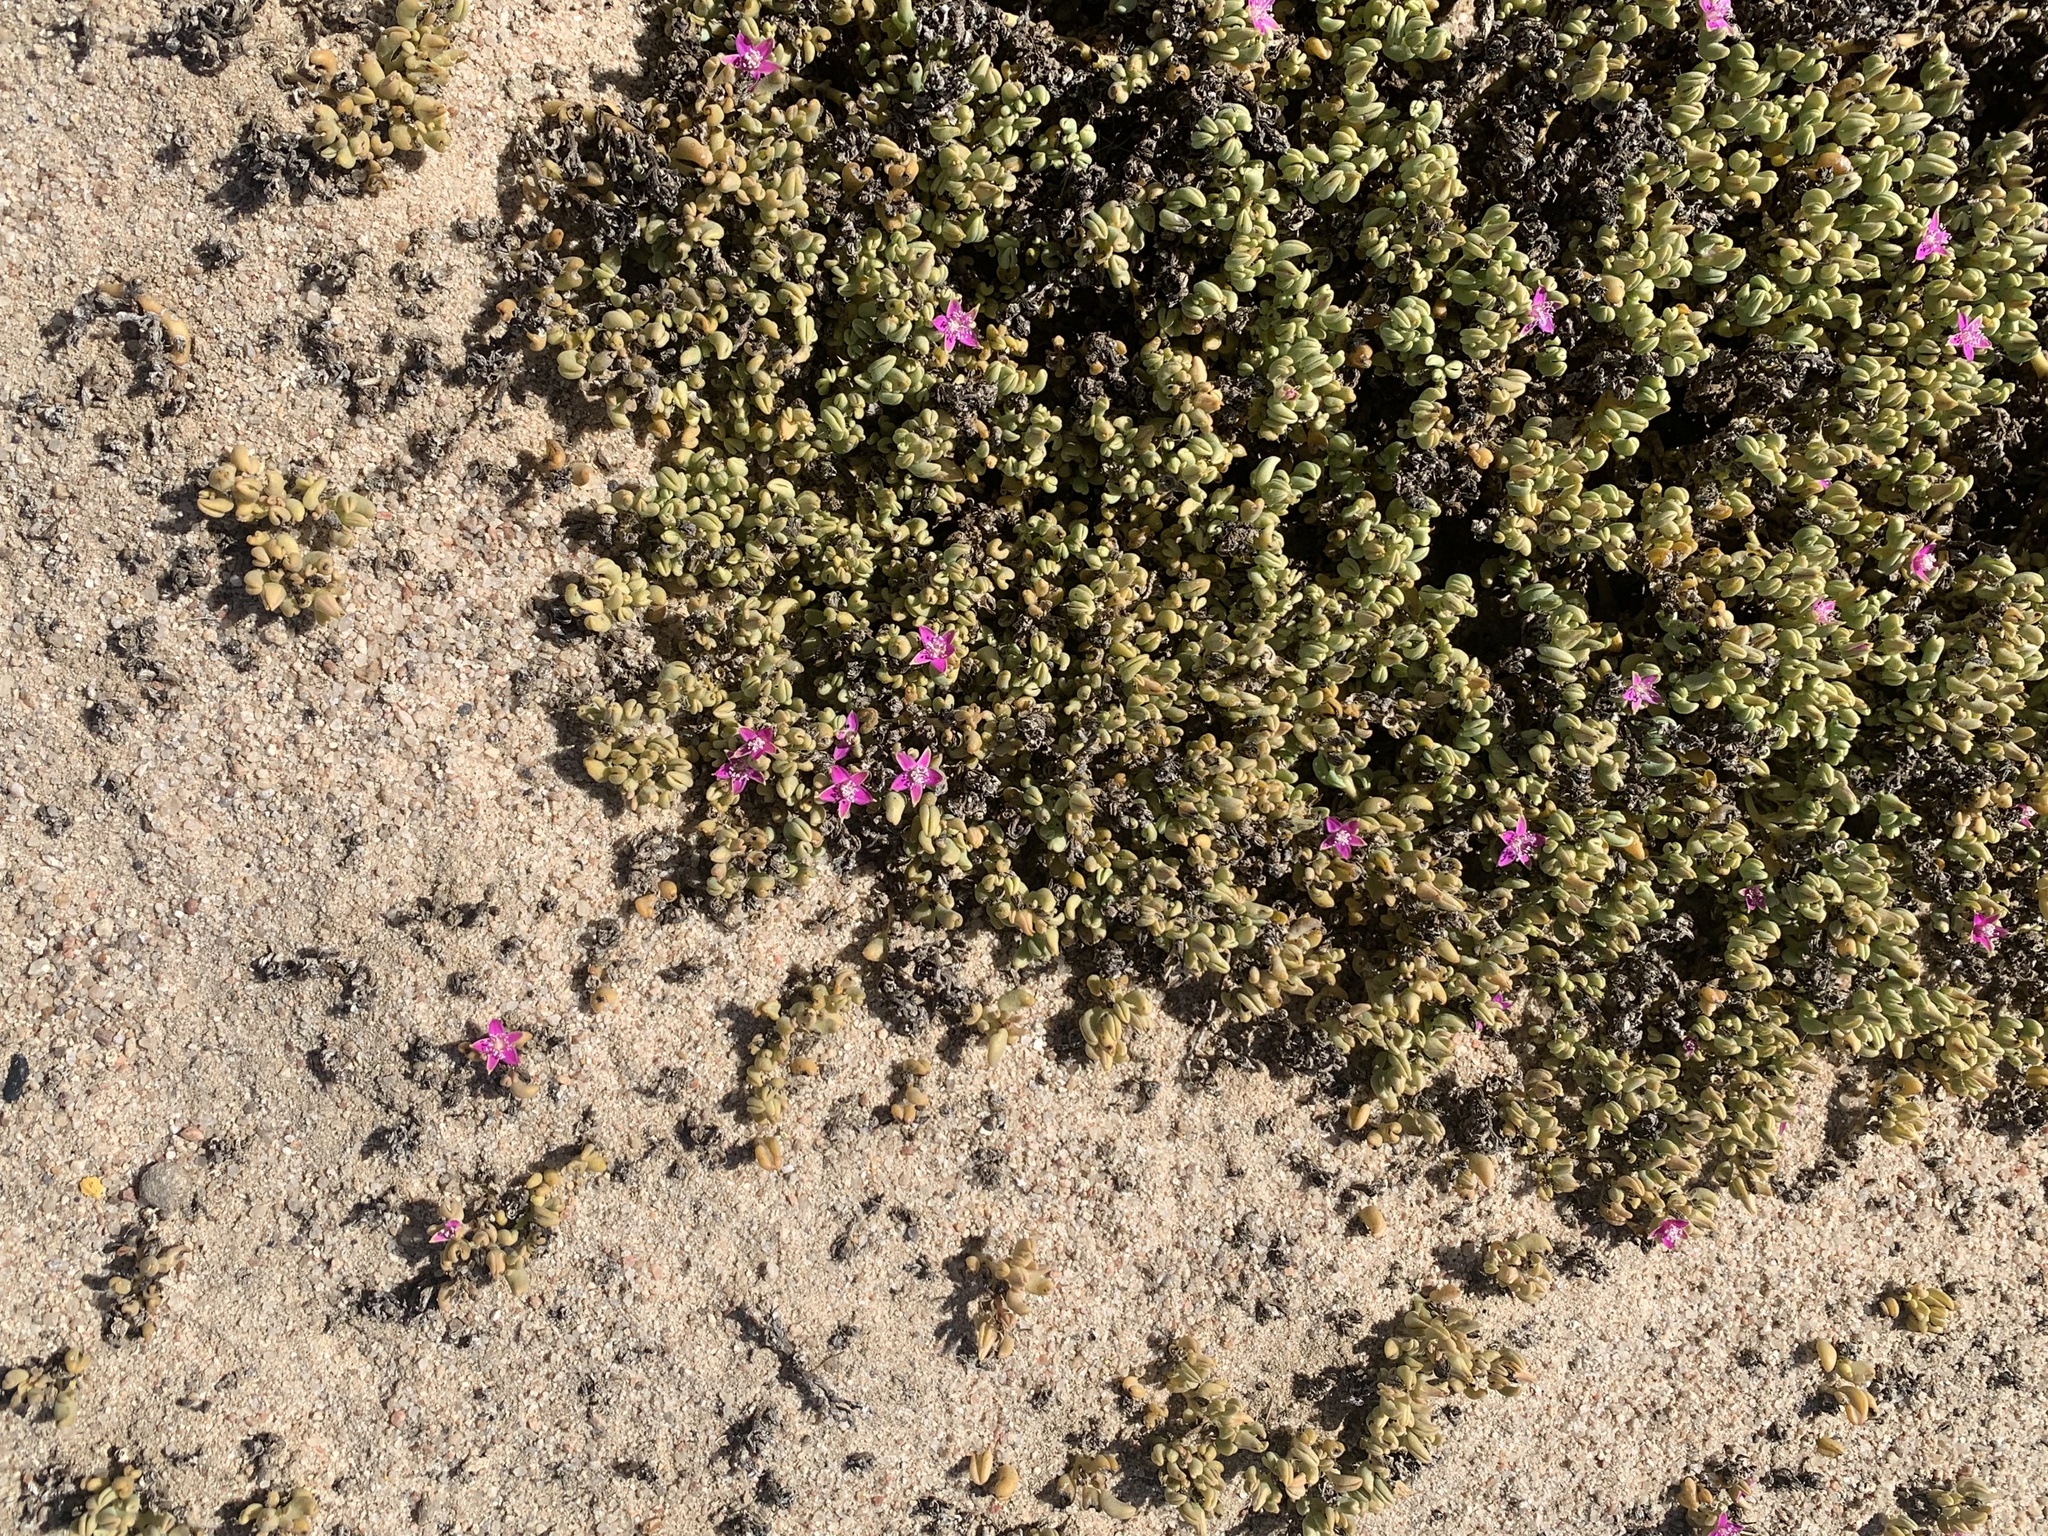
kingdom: Plantae
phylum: Tracheophyta
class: Magnoliopsida
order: Caryophyllales
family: Aizoaceae
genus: Sesuvium
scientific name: Sesuvium sesuvioides
